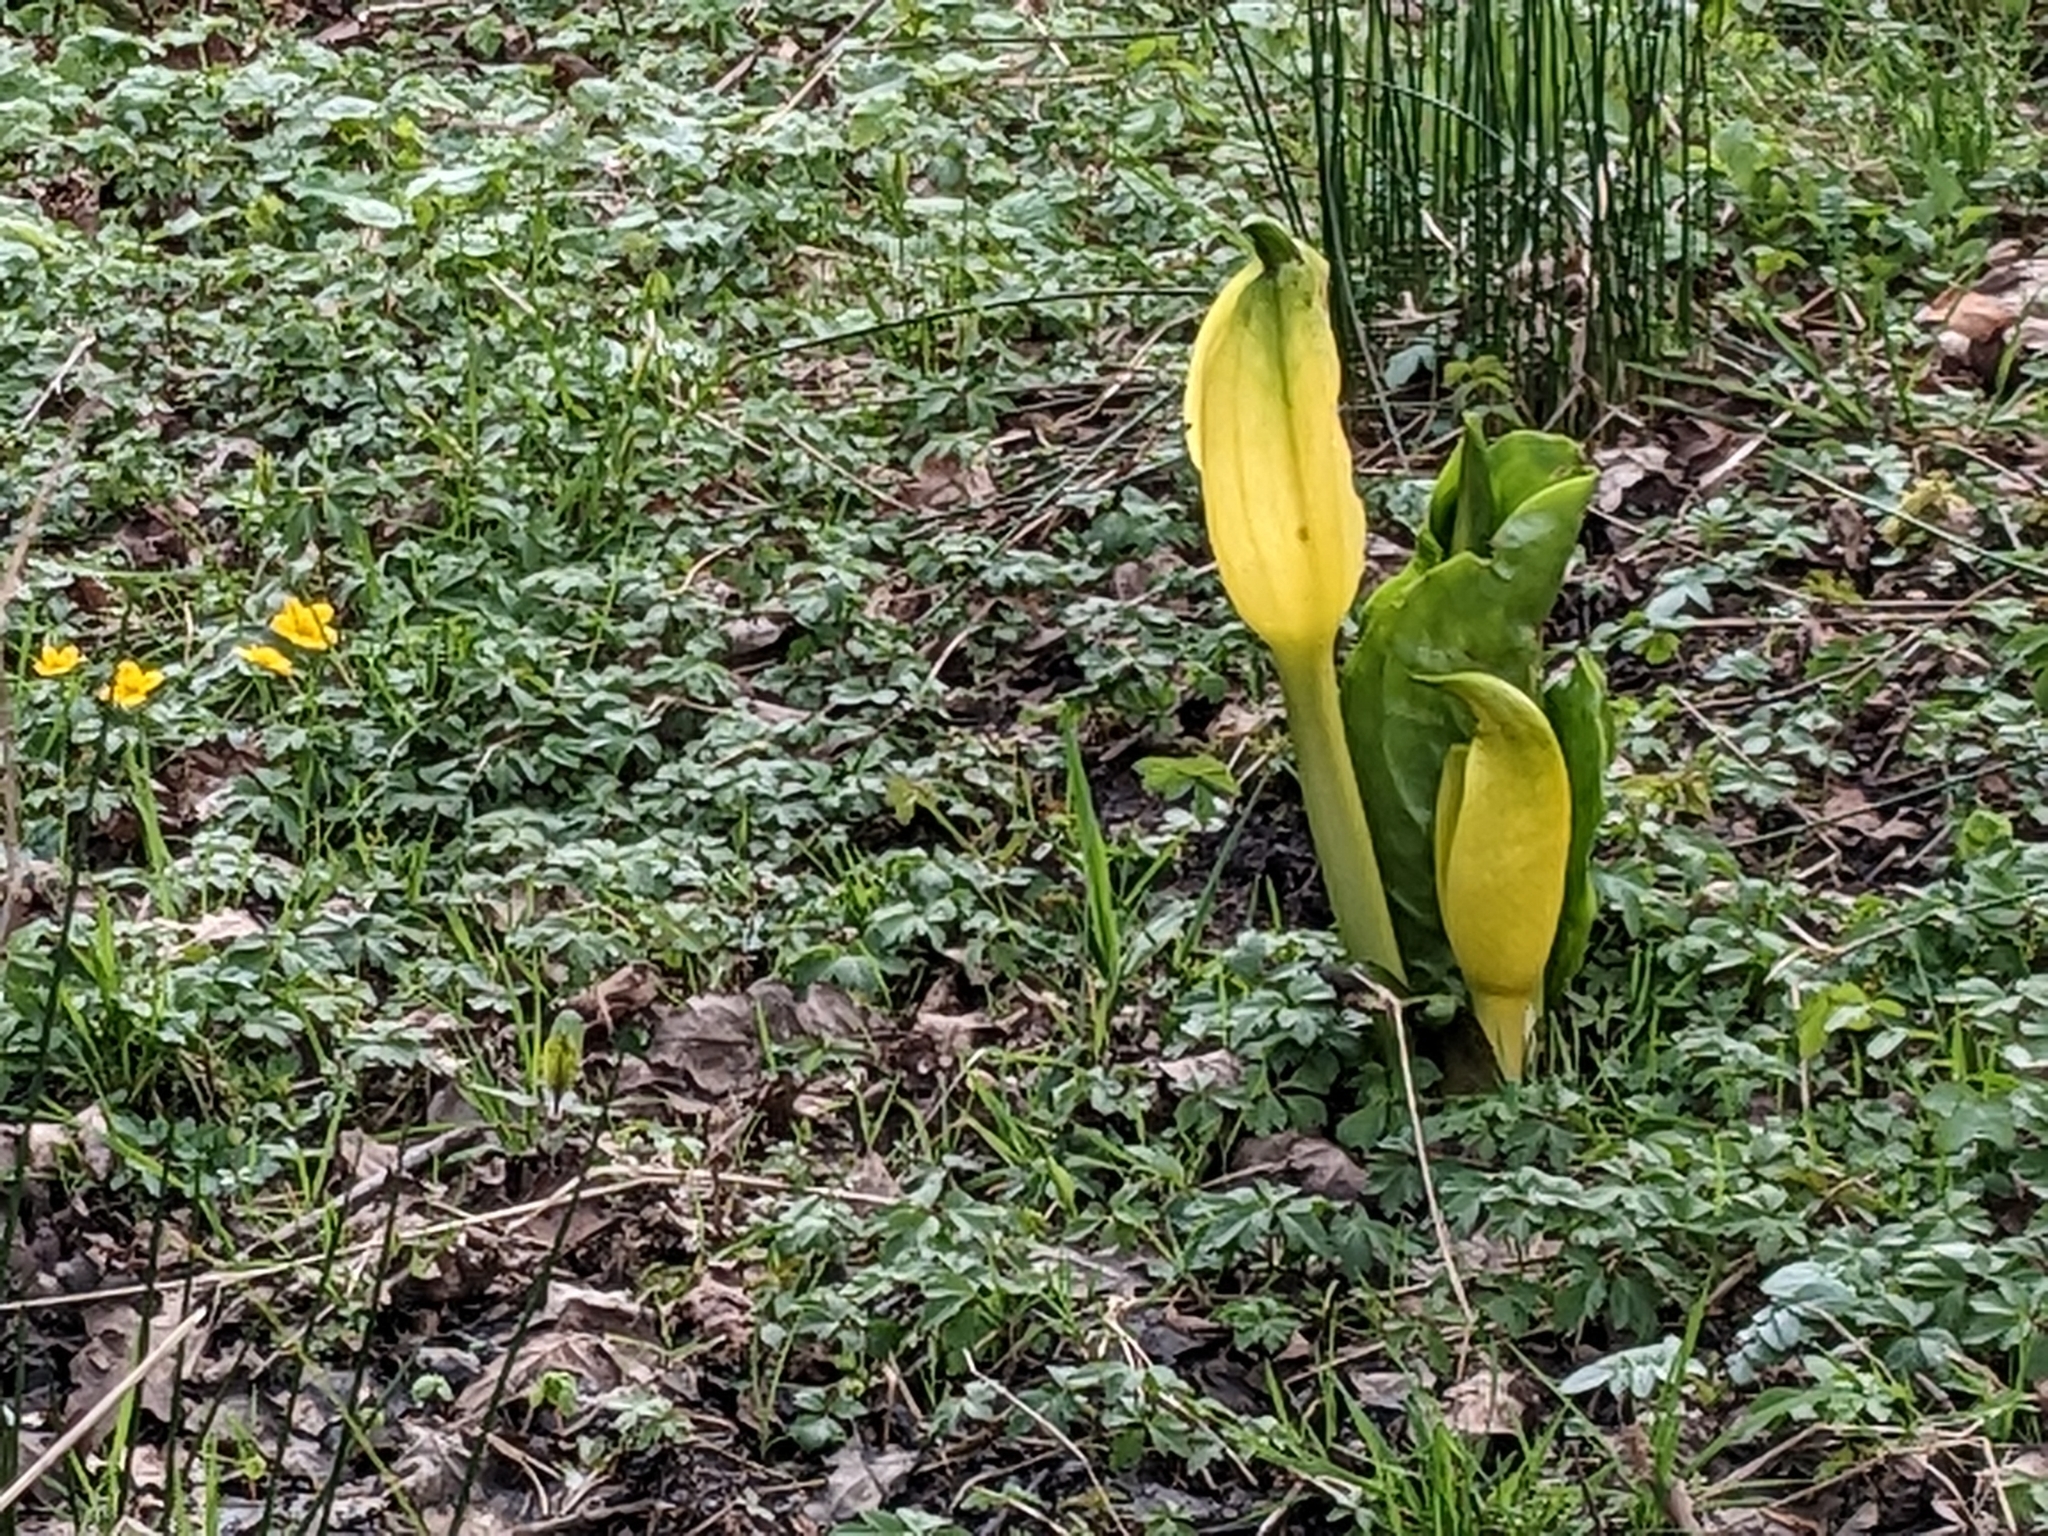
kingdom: Plantae
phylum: Tracheophyta
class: Liliopsida
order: Alismatales
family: Araceae
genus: Lysichiton
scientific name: Lysichiton americanus
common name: American skunk cabbage
